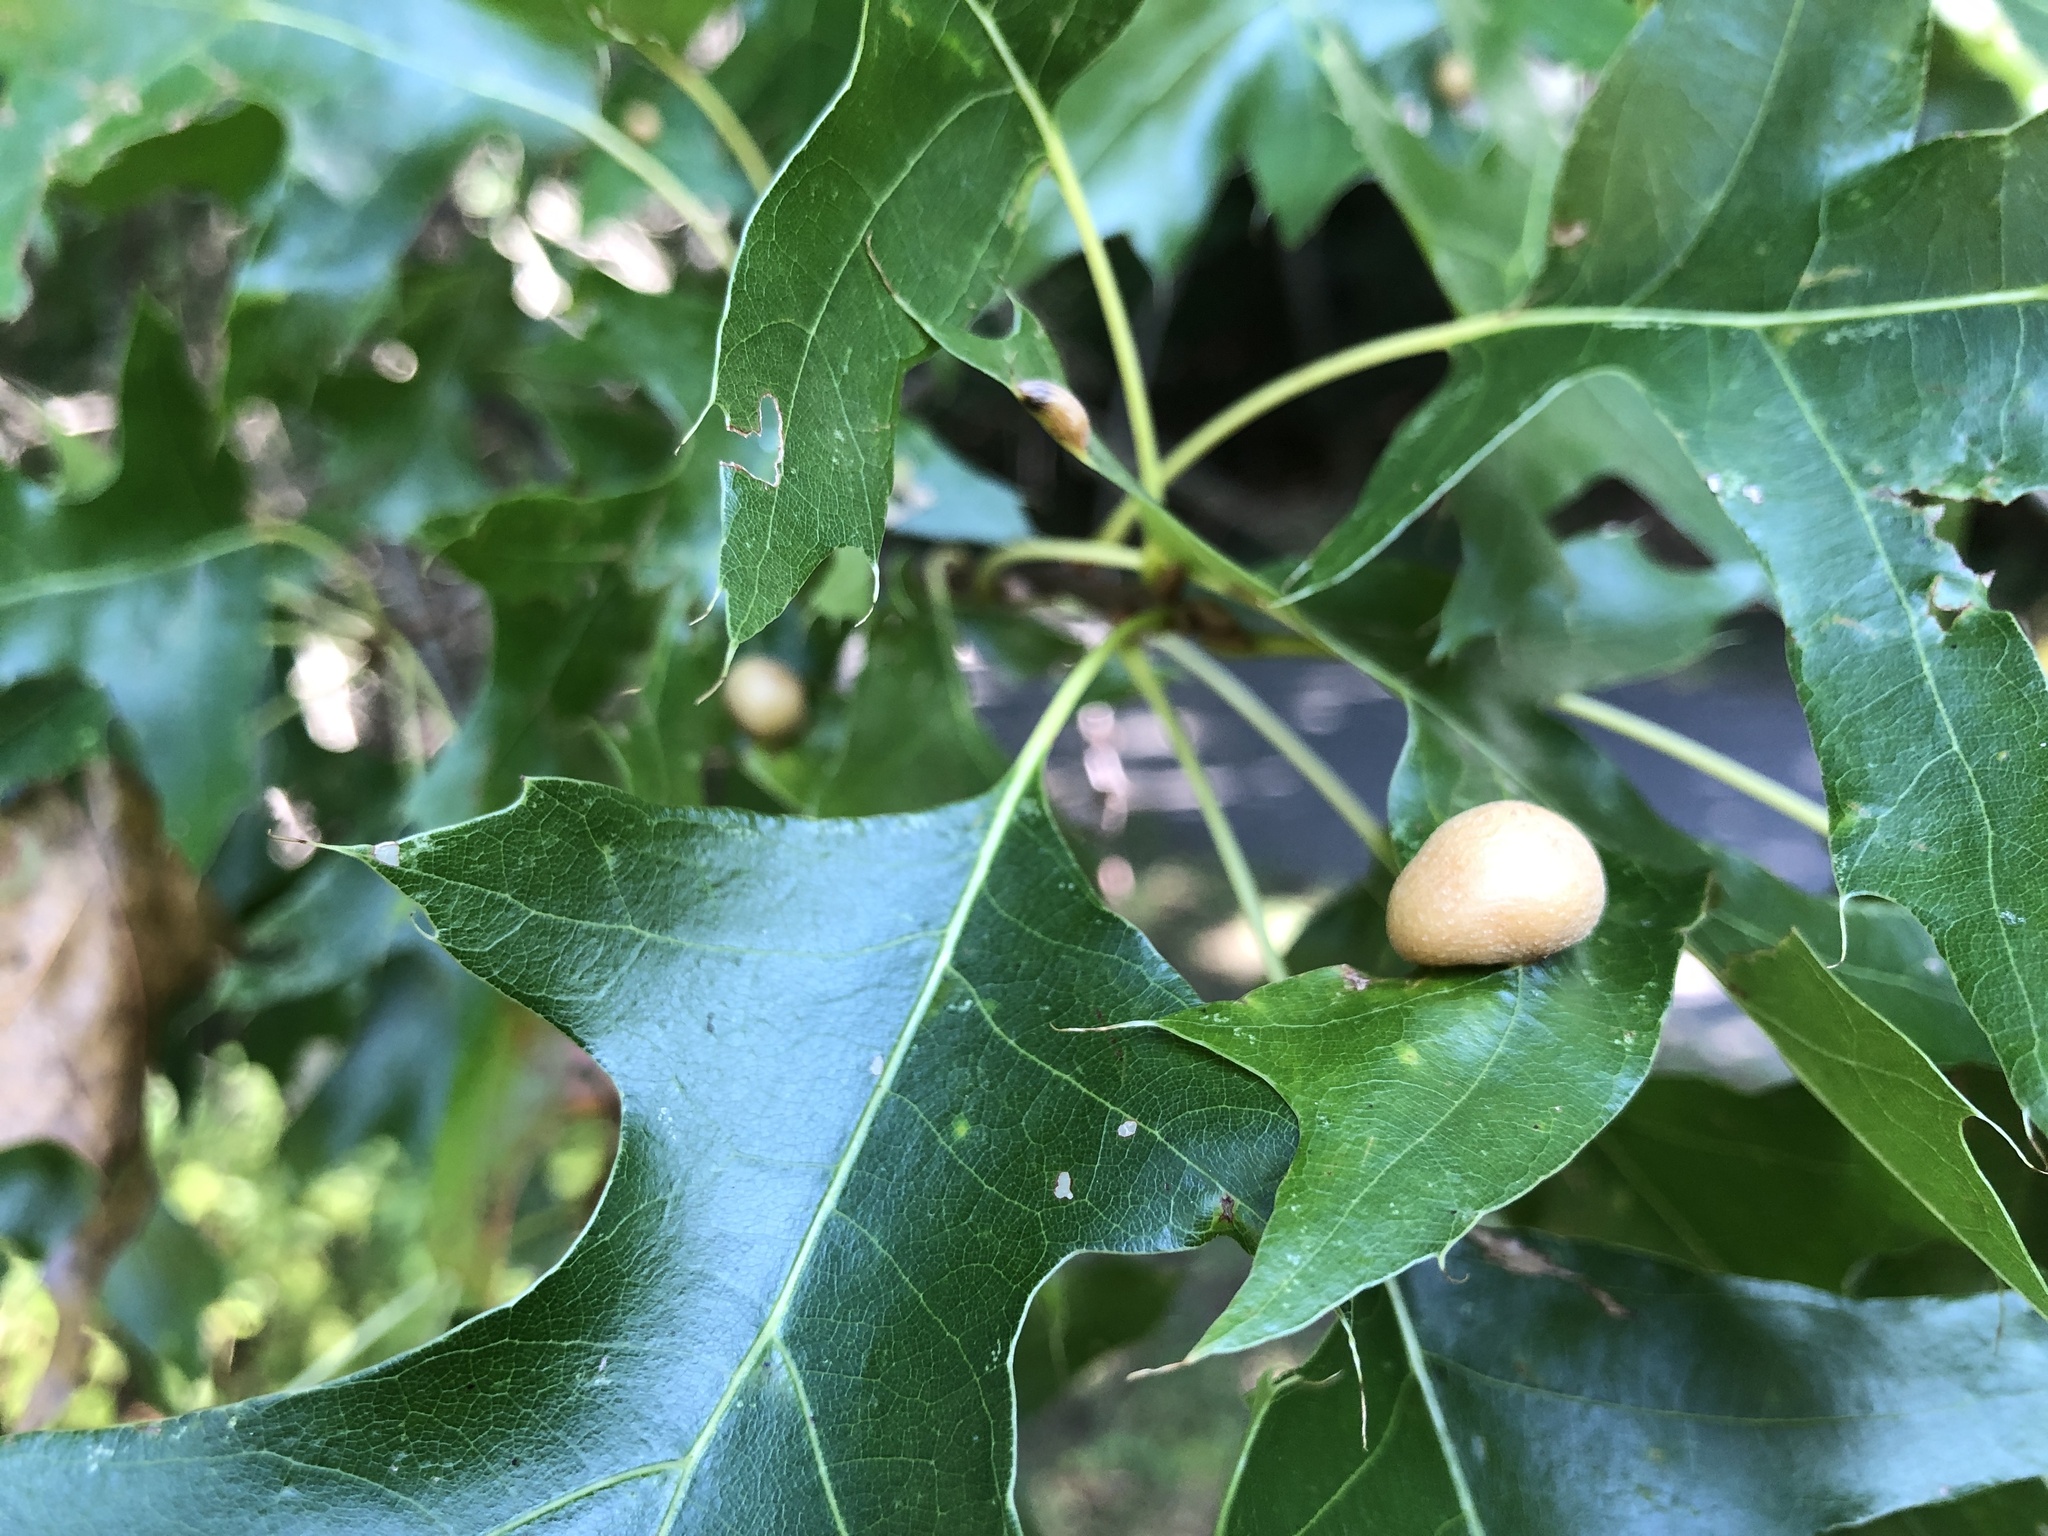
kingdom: Animalia
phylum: Arthropoda
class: Insecta
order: Diptera
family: Cecidomyiidae
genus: Polystepha
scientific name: Polystepha pilulae
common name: Oak leaf gall midge
